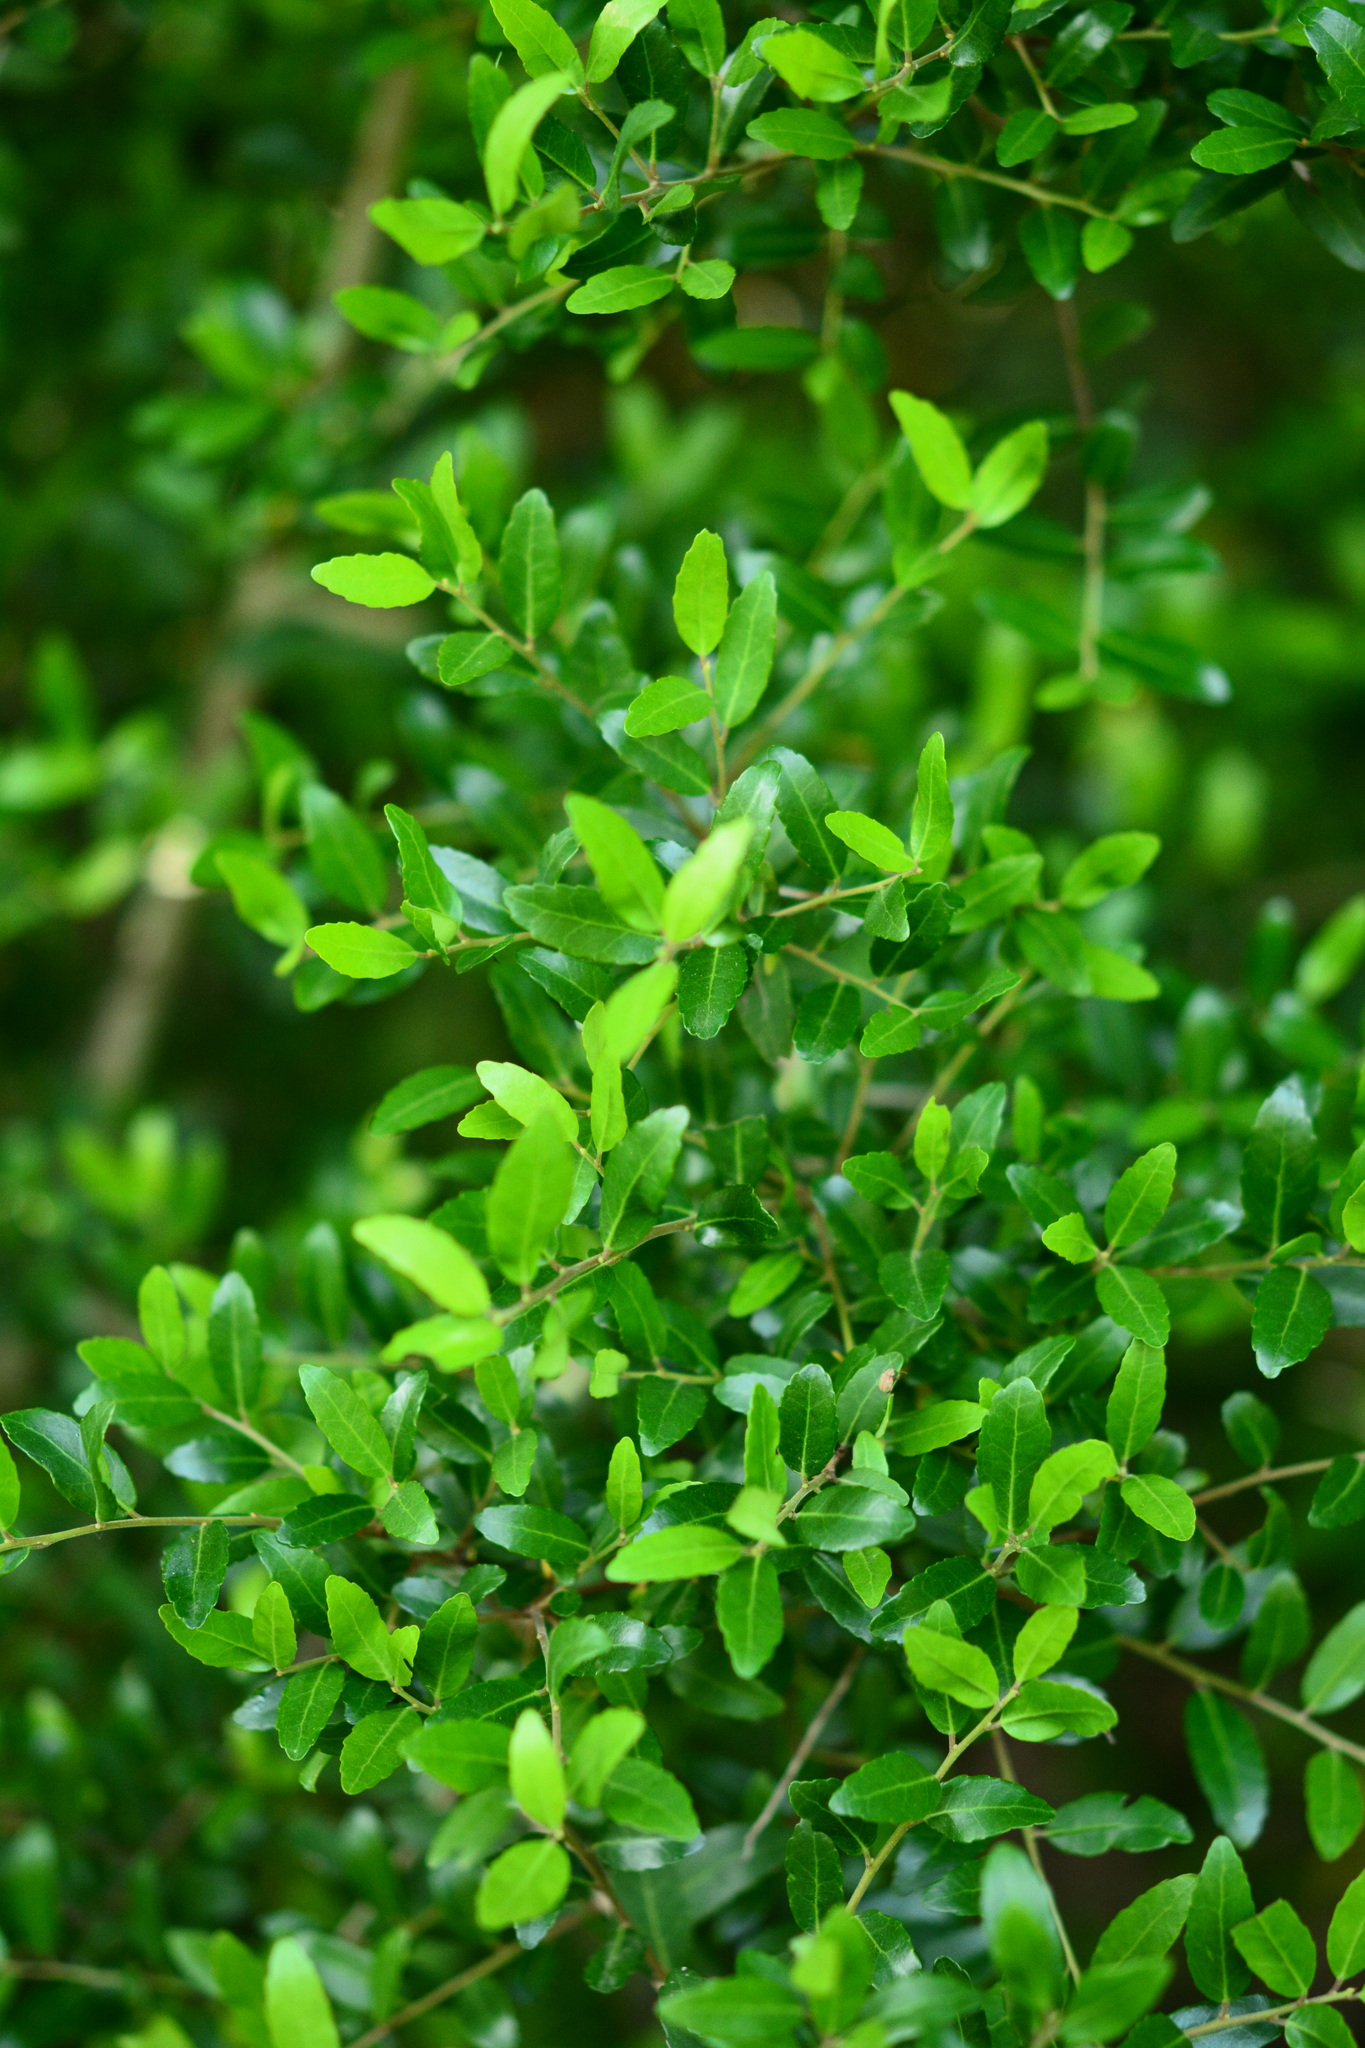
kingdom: Plantae
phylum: Tracheophyta
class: Magnoliopsida
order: Aquifoliales
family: Aquifoliaceae
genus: Ilex
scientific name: Ilex vomitoria
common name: Yaupon holly
